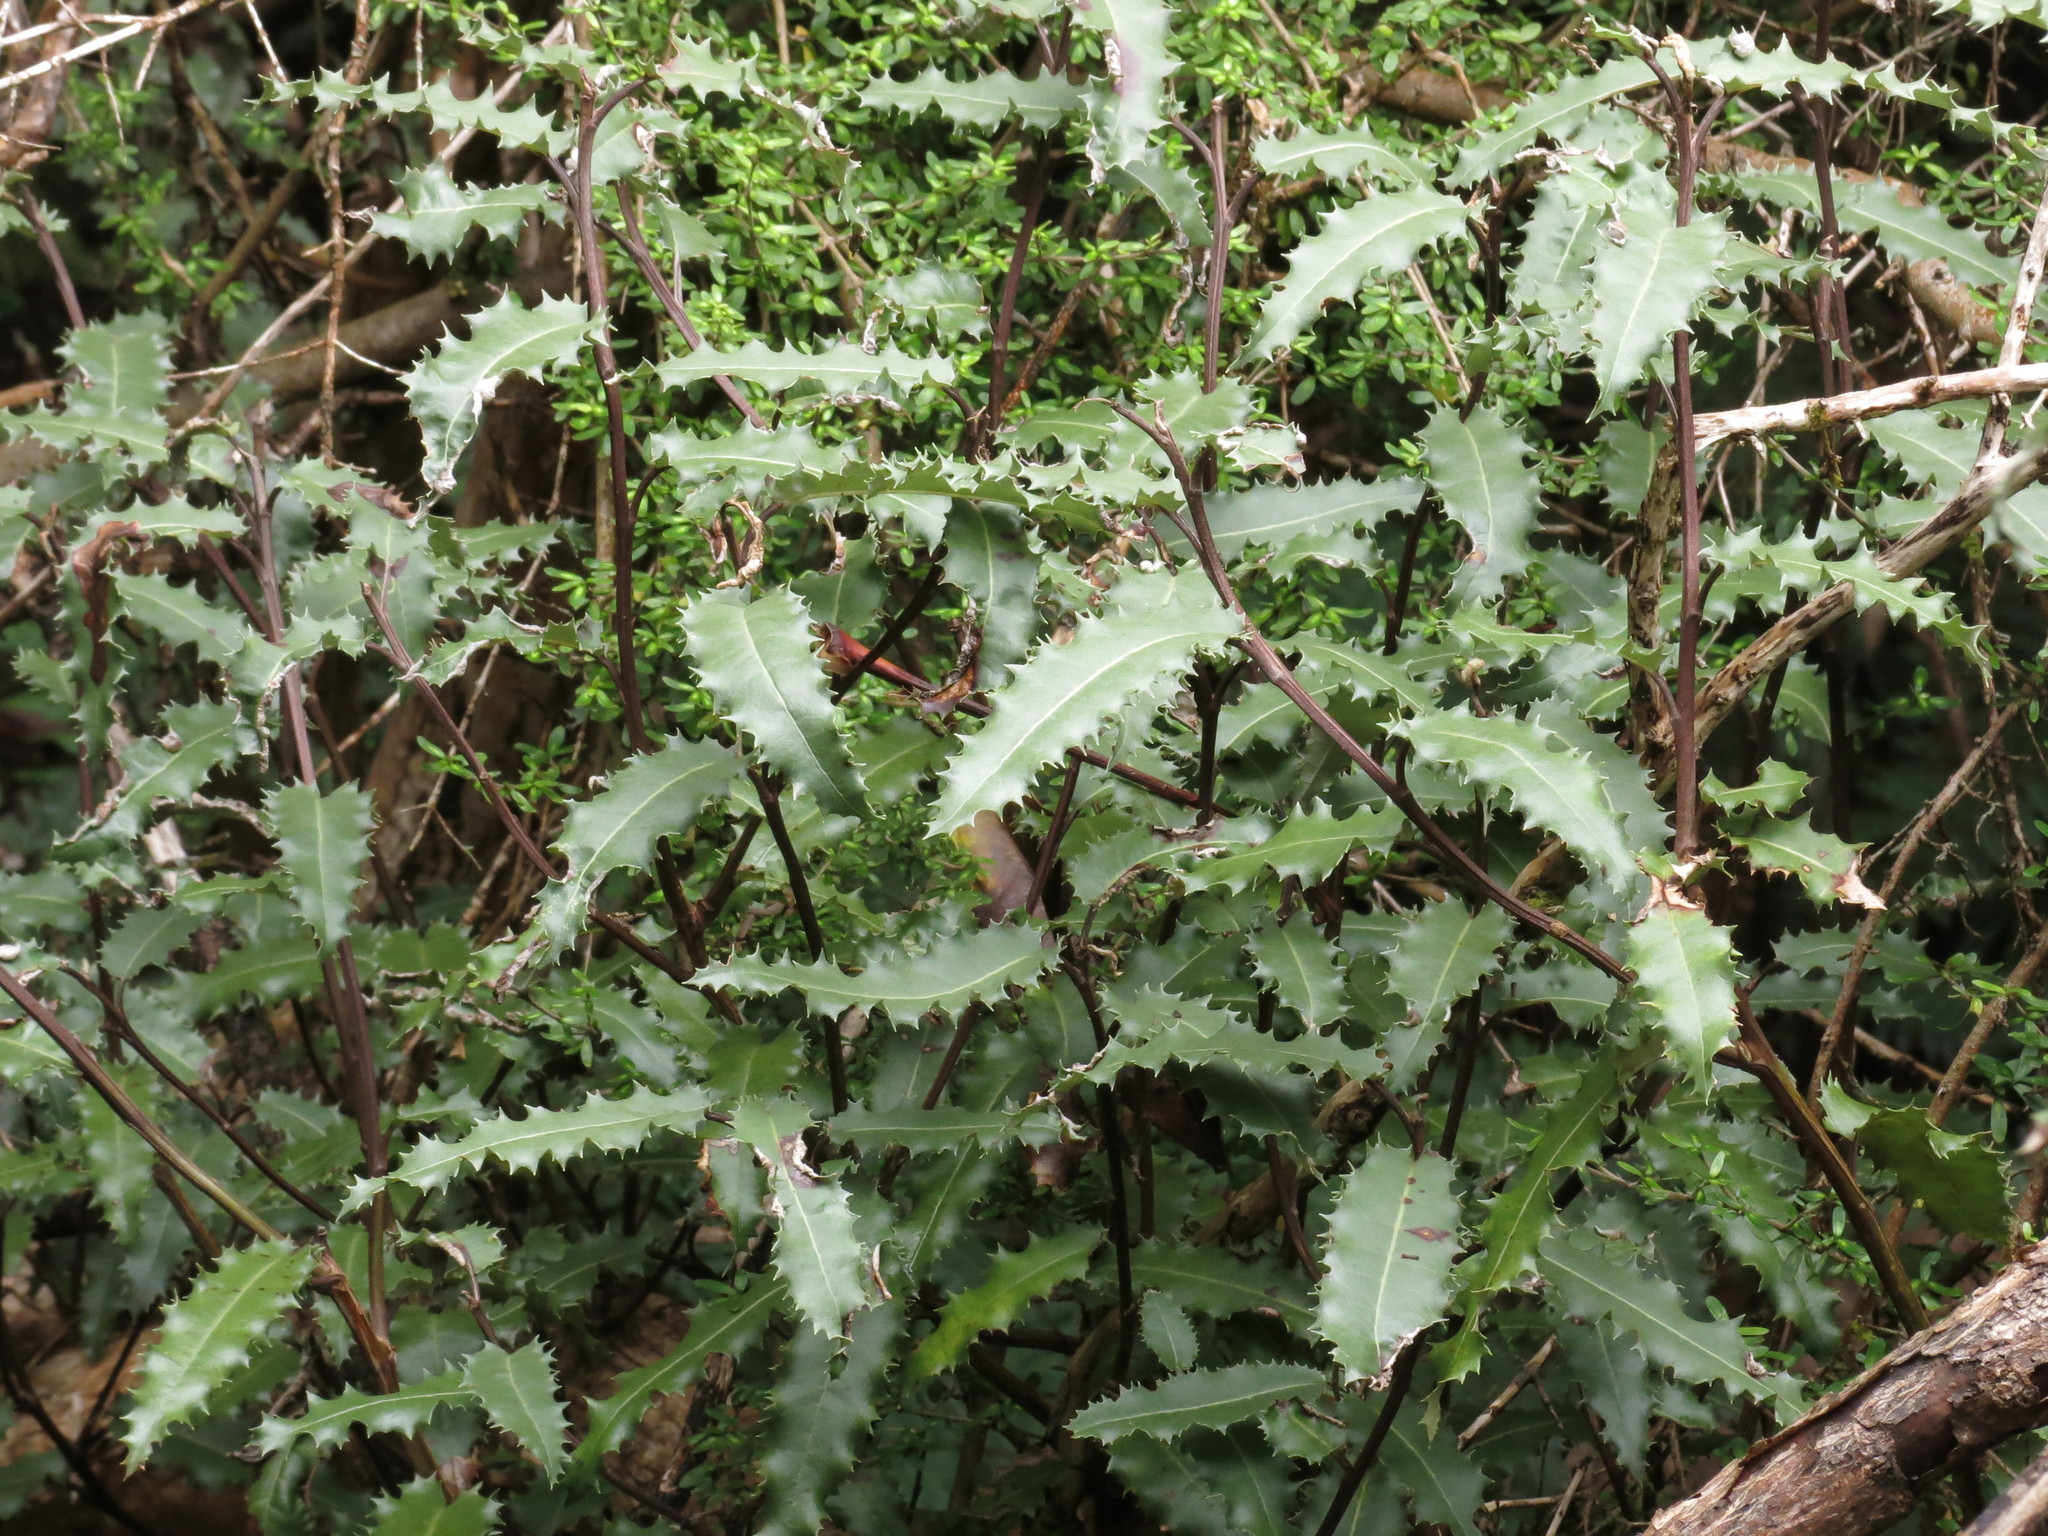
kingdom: Plantae
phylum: Tracheophyta
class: Magnoliopsida
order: Asterales
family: Asteraceae
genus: Olearia
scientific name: Olearia ilicifolia
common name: Maori-holly
